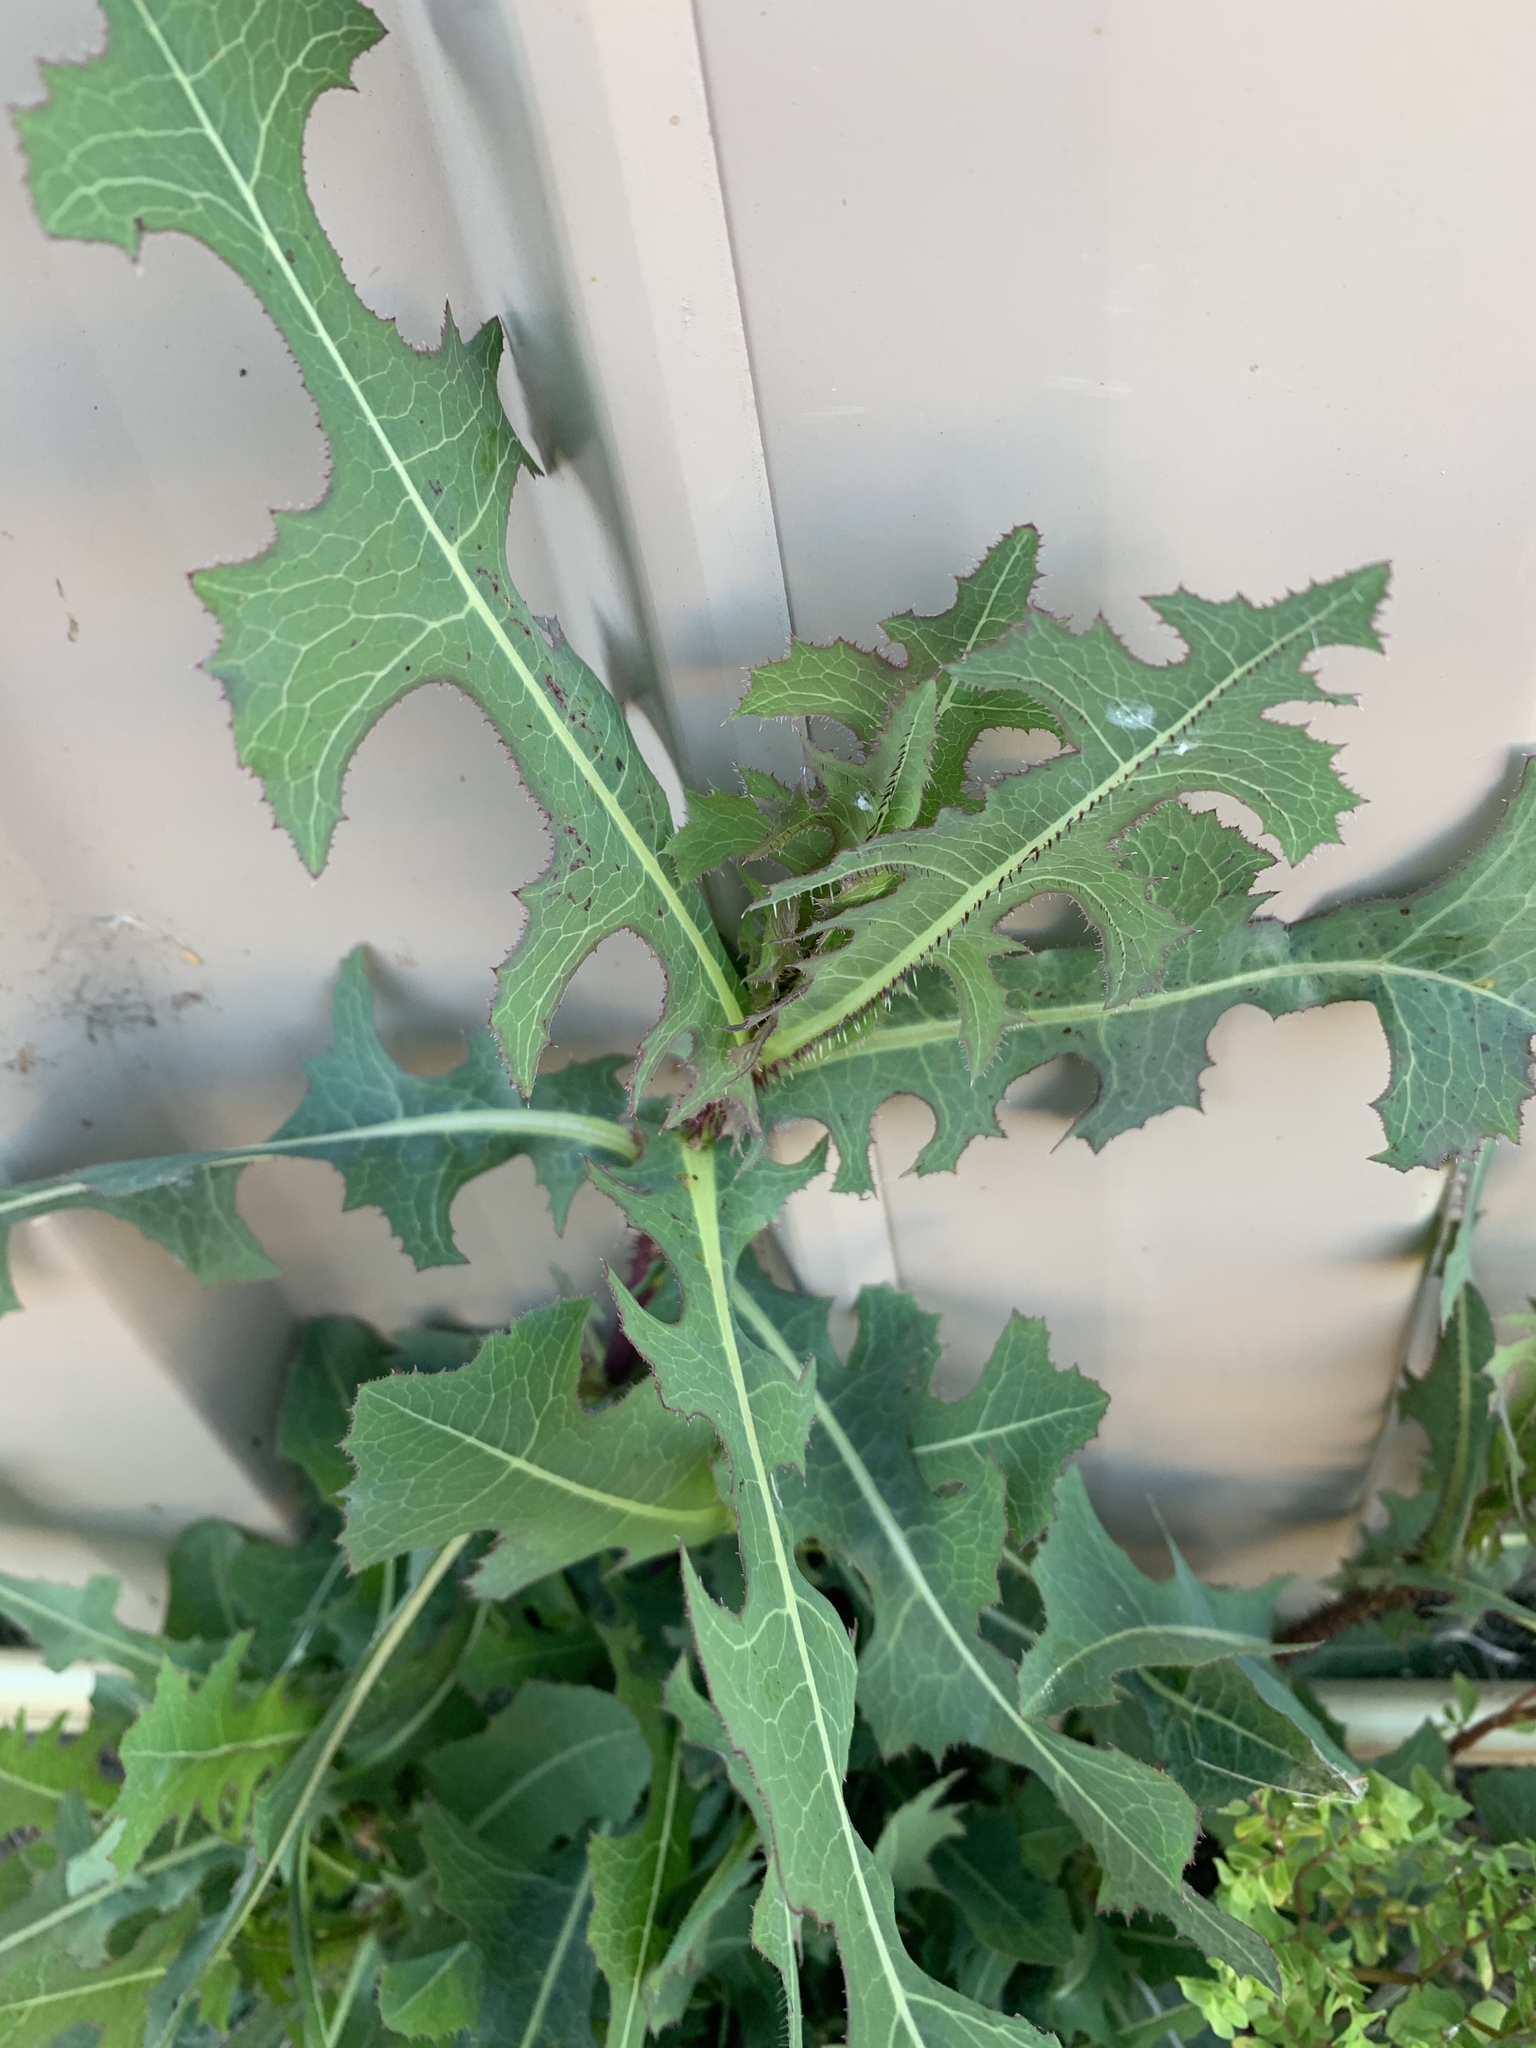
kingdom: Plantae
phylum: Tracheophyta
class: Magnoliopsida
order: Asterales
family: Asteraceae
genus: Lactuca
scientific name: Lactuca serriola
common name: Prickly lettuce
